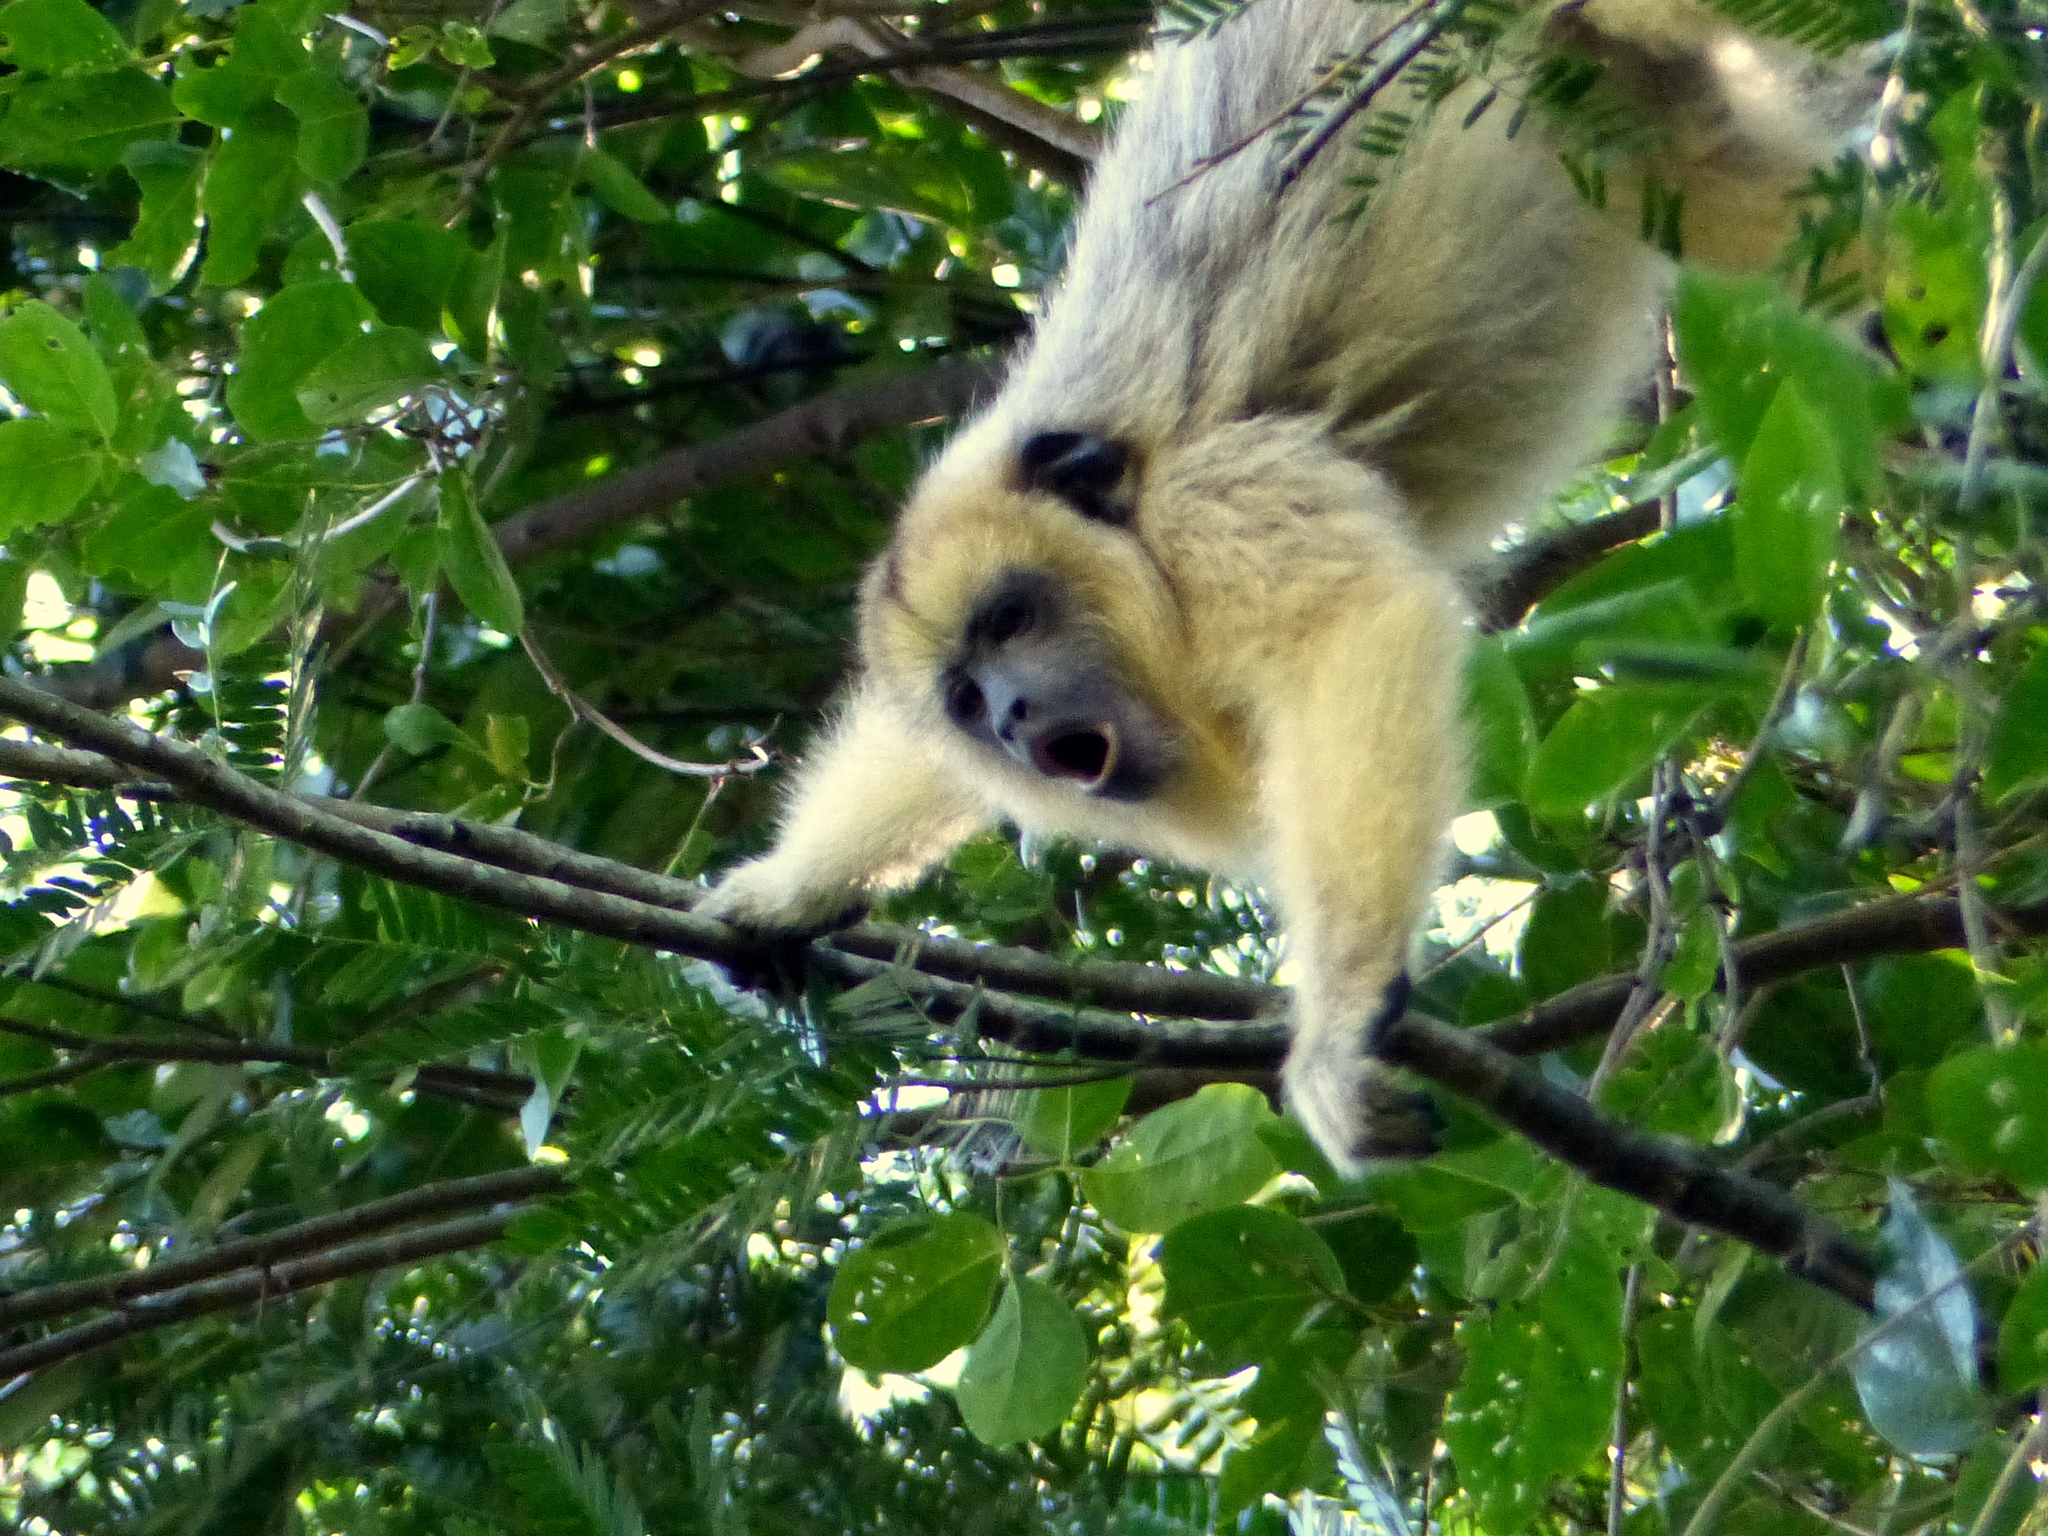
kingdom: Animalia
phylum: Chordata
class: Mammalia
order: Primates
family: Atelidae
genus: Alouatta
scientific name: Alouatta caraya
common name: Black howler
